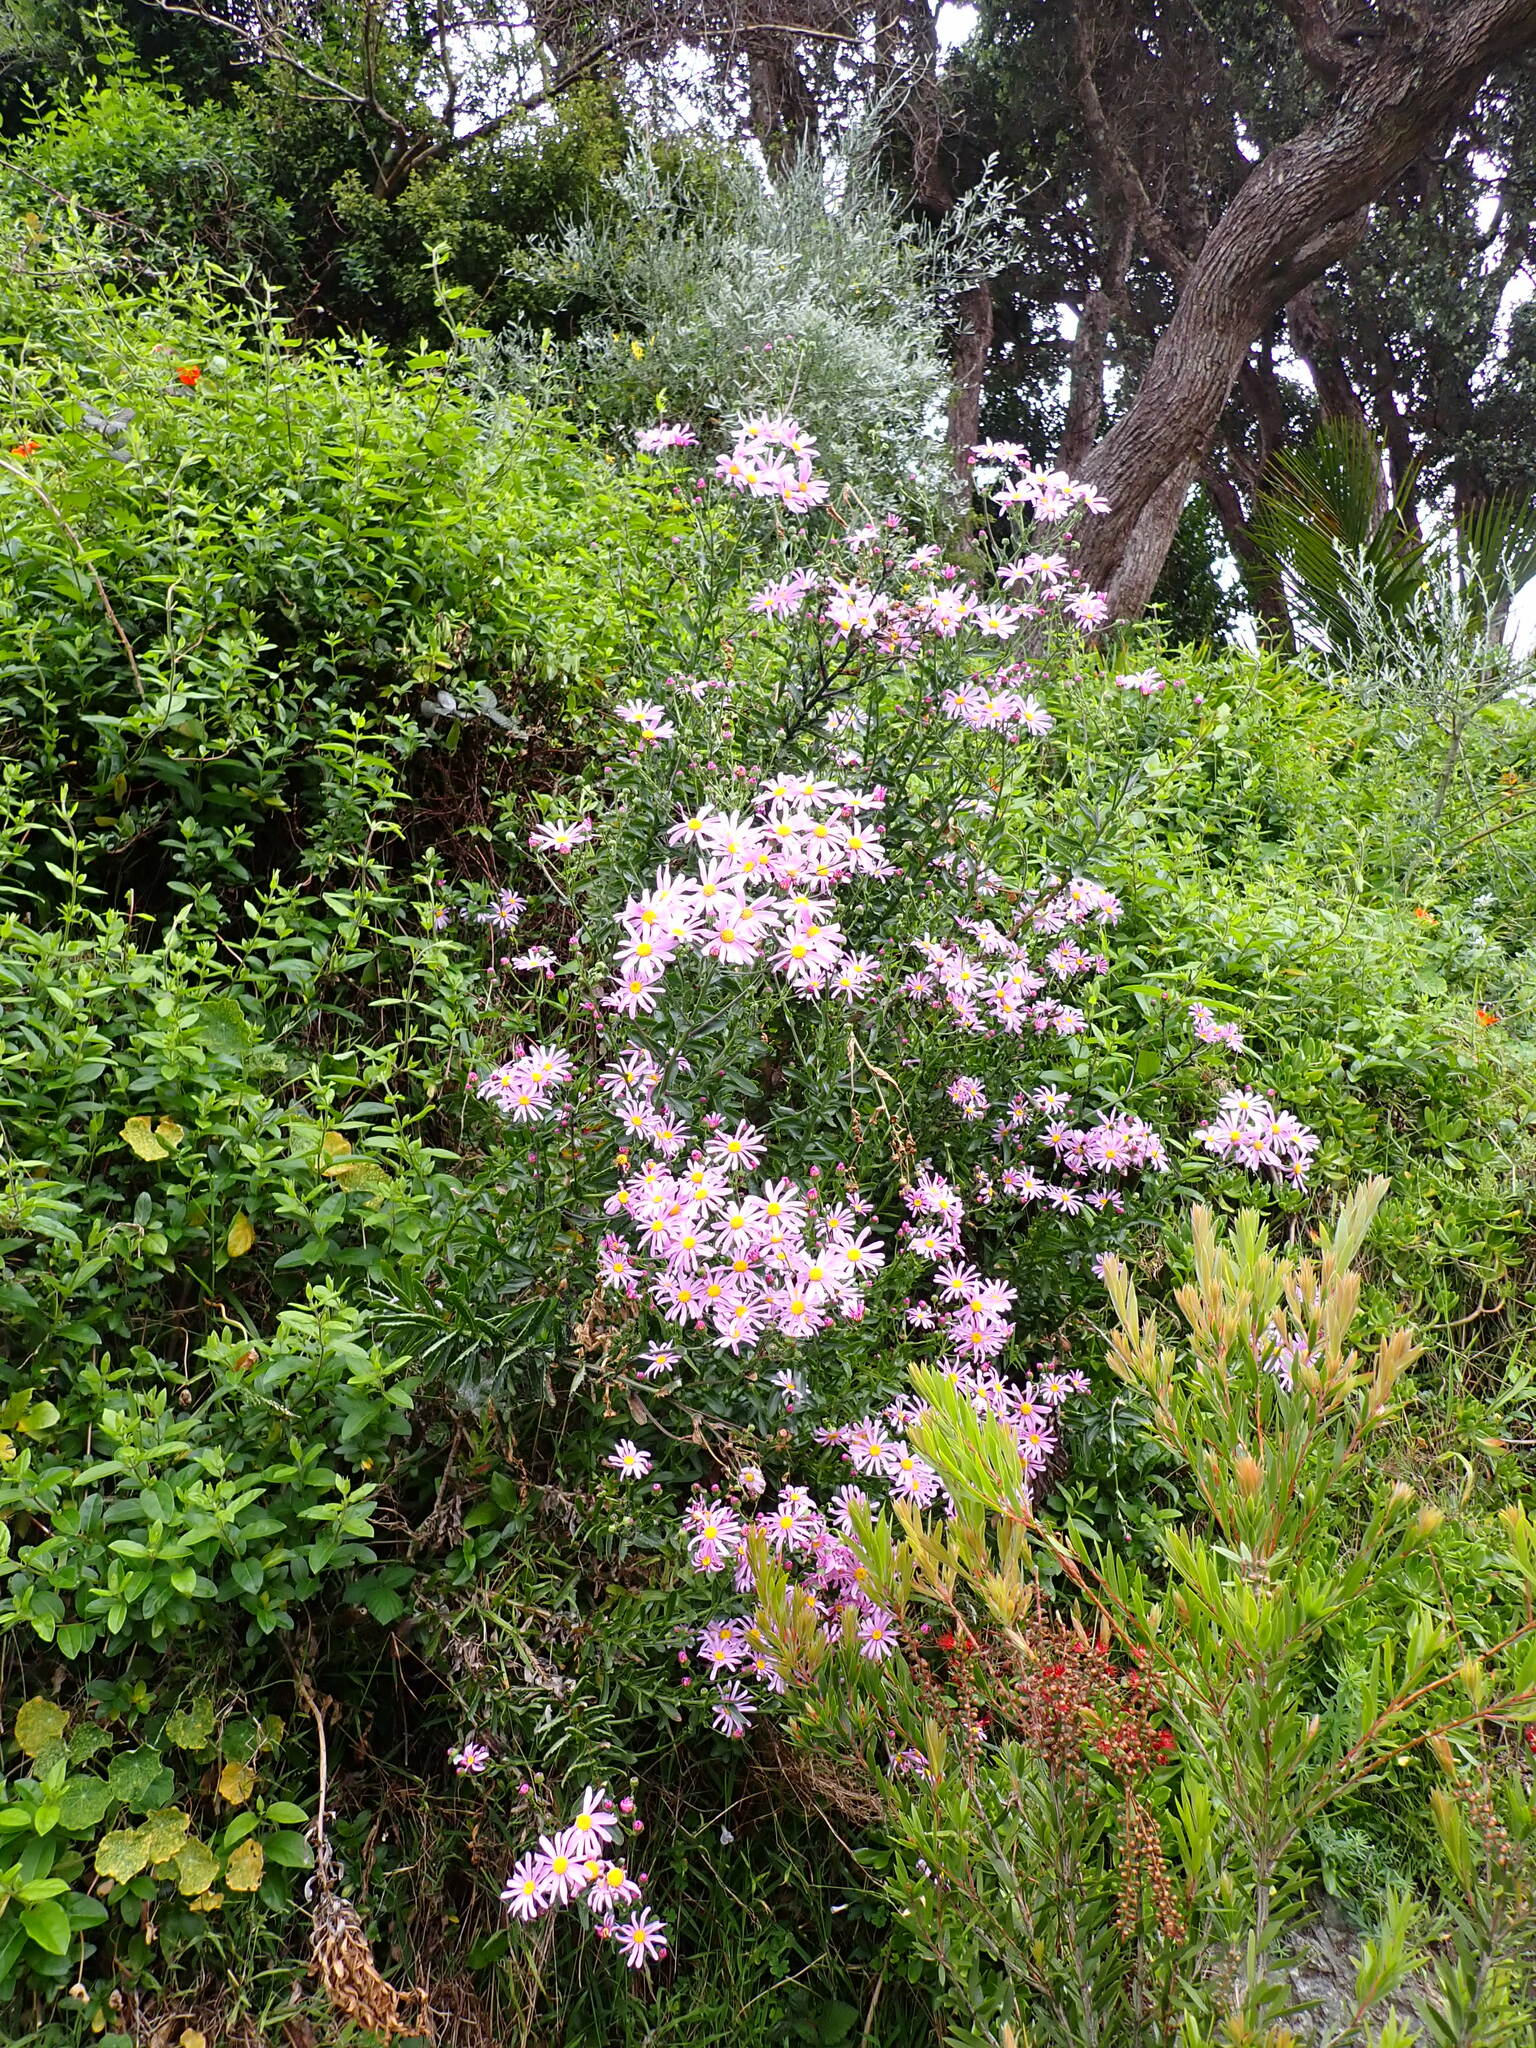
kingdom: Plantae
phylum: Tracheophyta
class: Magnoliopsida
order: Asterales
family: Asteraceae
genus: Senecio
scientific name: Senecio glastifolius
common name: Woad-leaved ragwort
